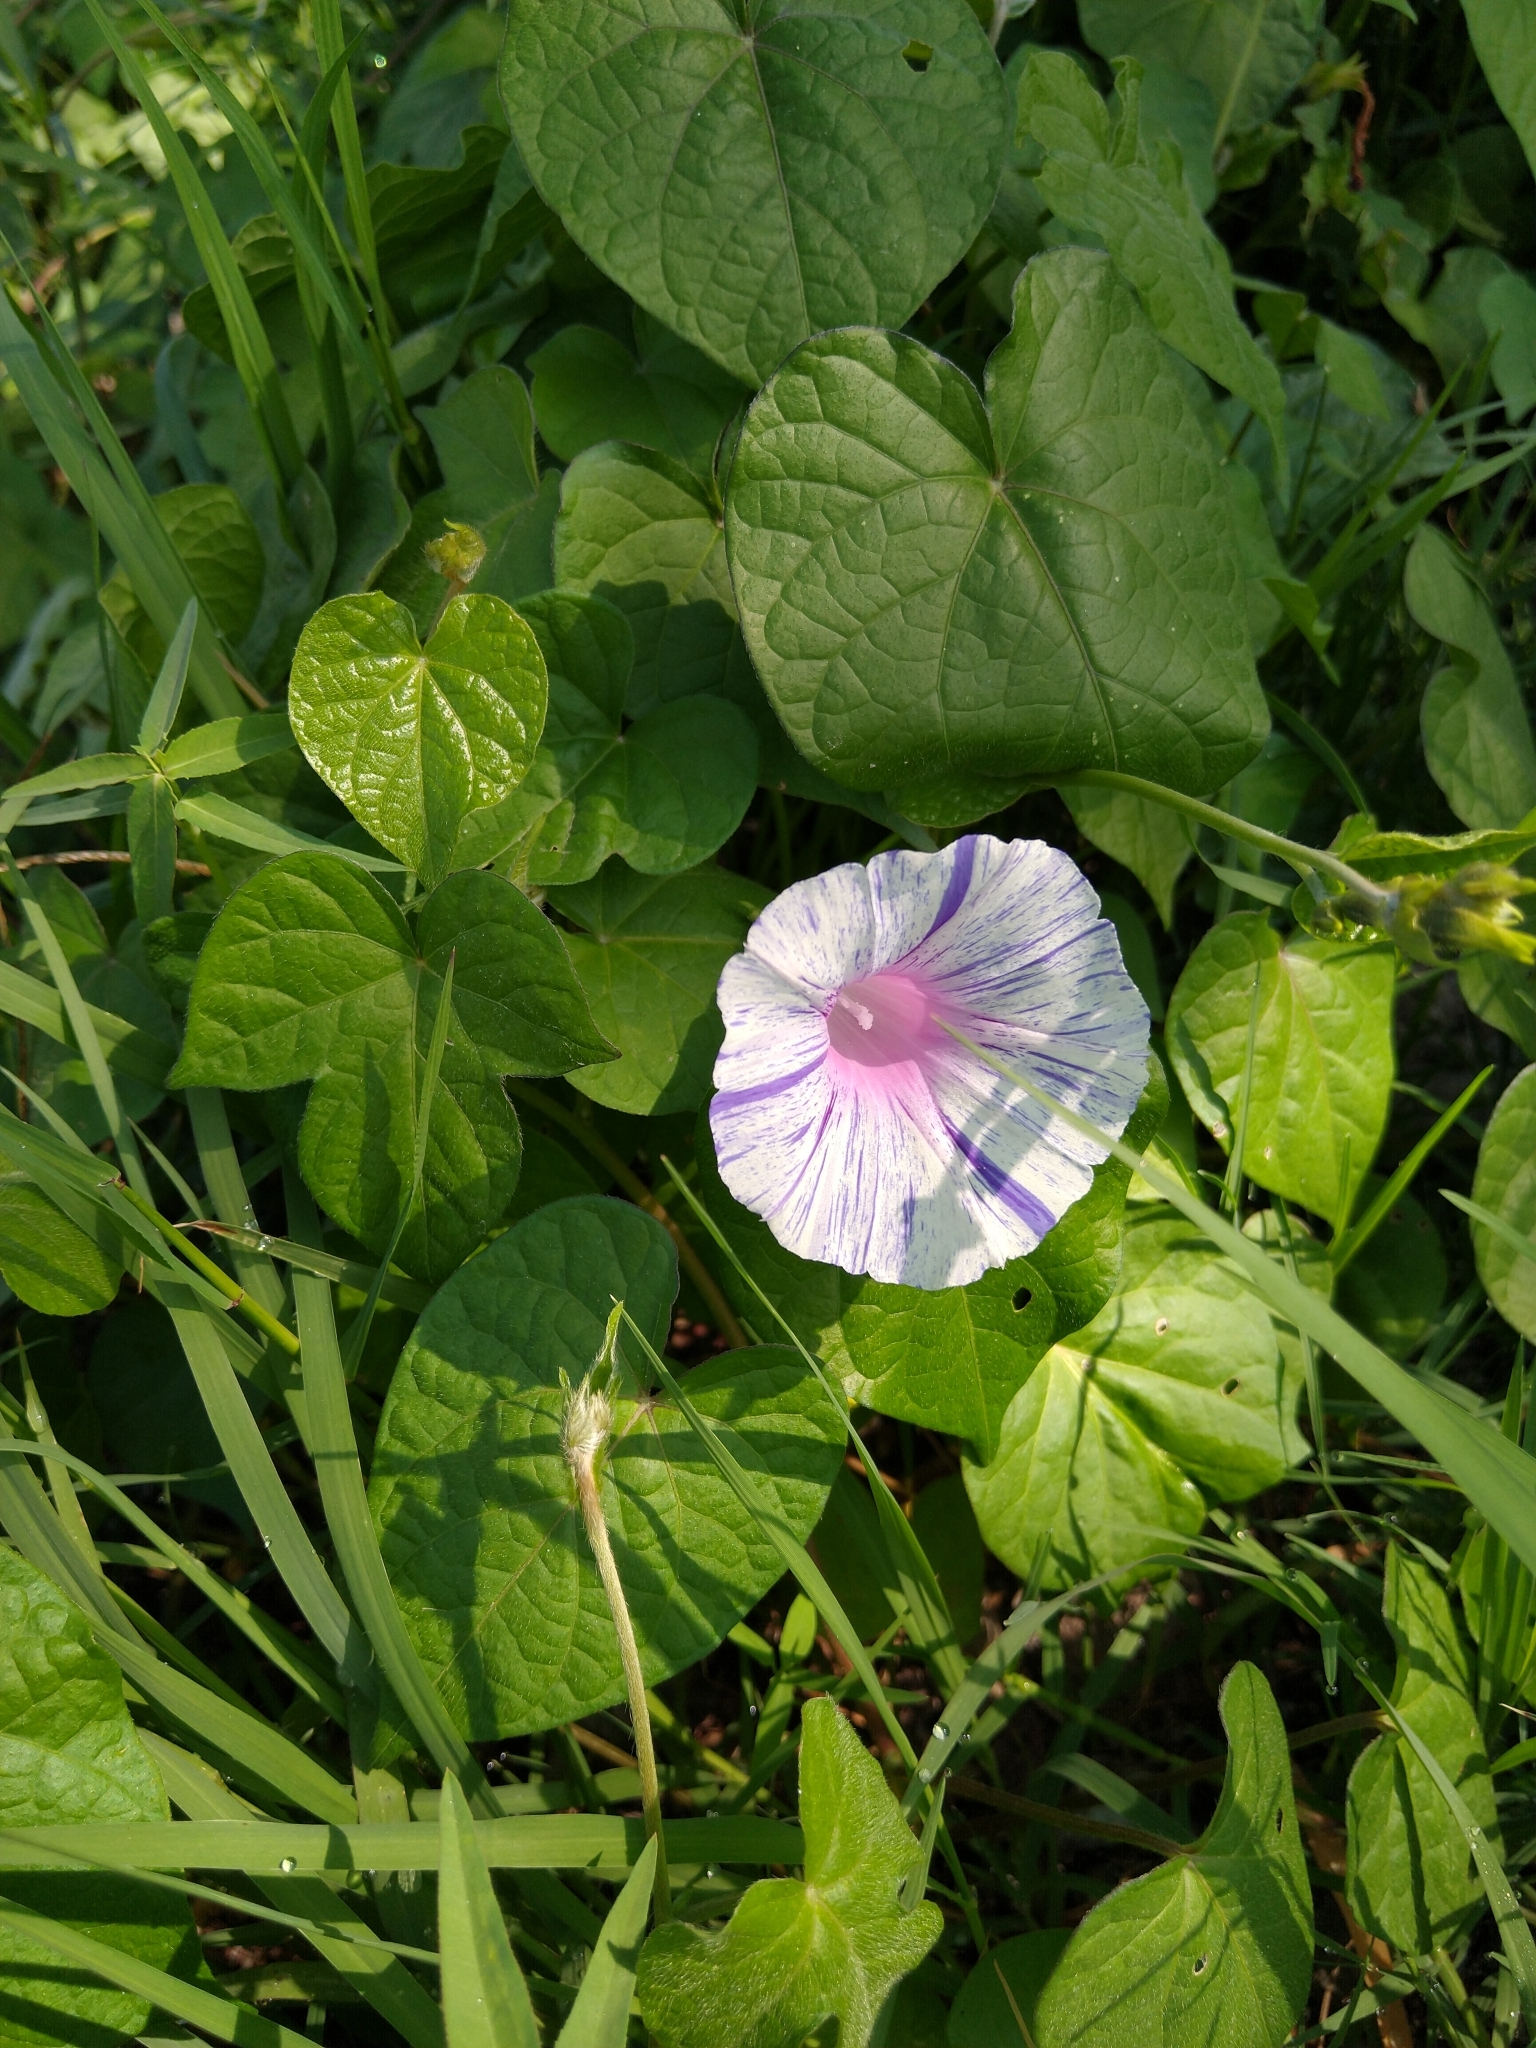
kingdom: Plantae
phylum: Tracheophyta
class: Magnoliopsida
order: Solanales
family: Convolvulaceae
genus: Ipomoea
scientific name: Ipomoea purpurea
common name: Common morning-glory
